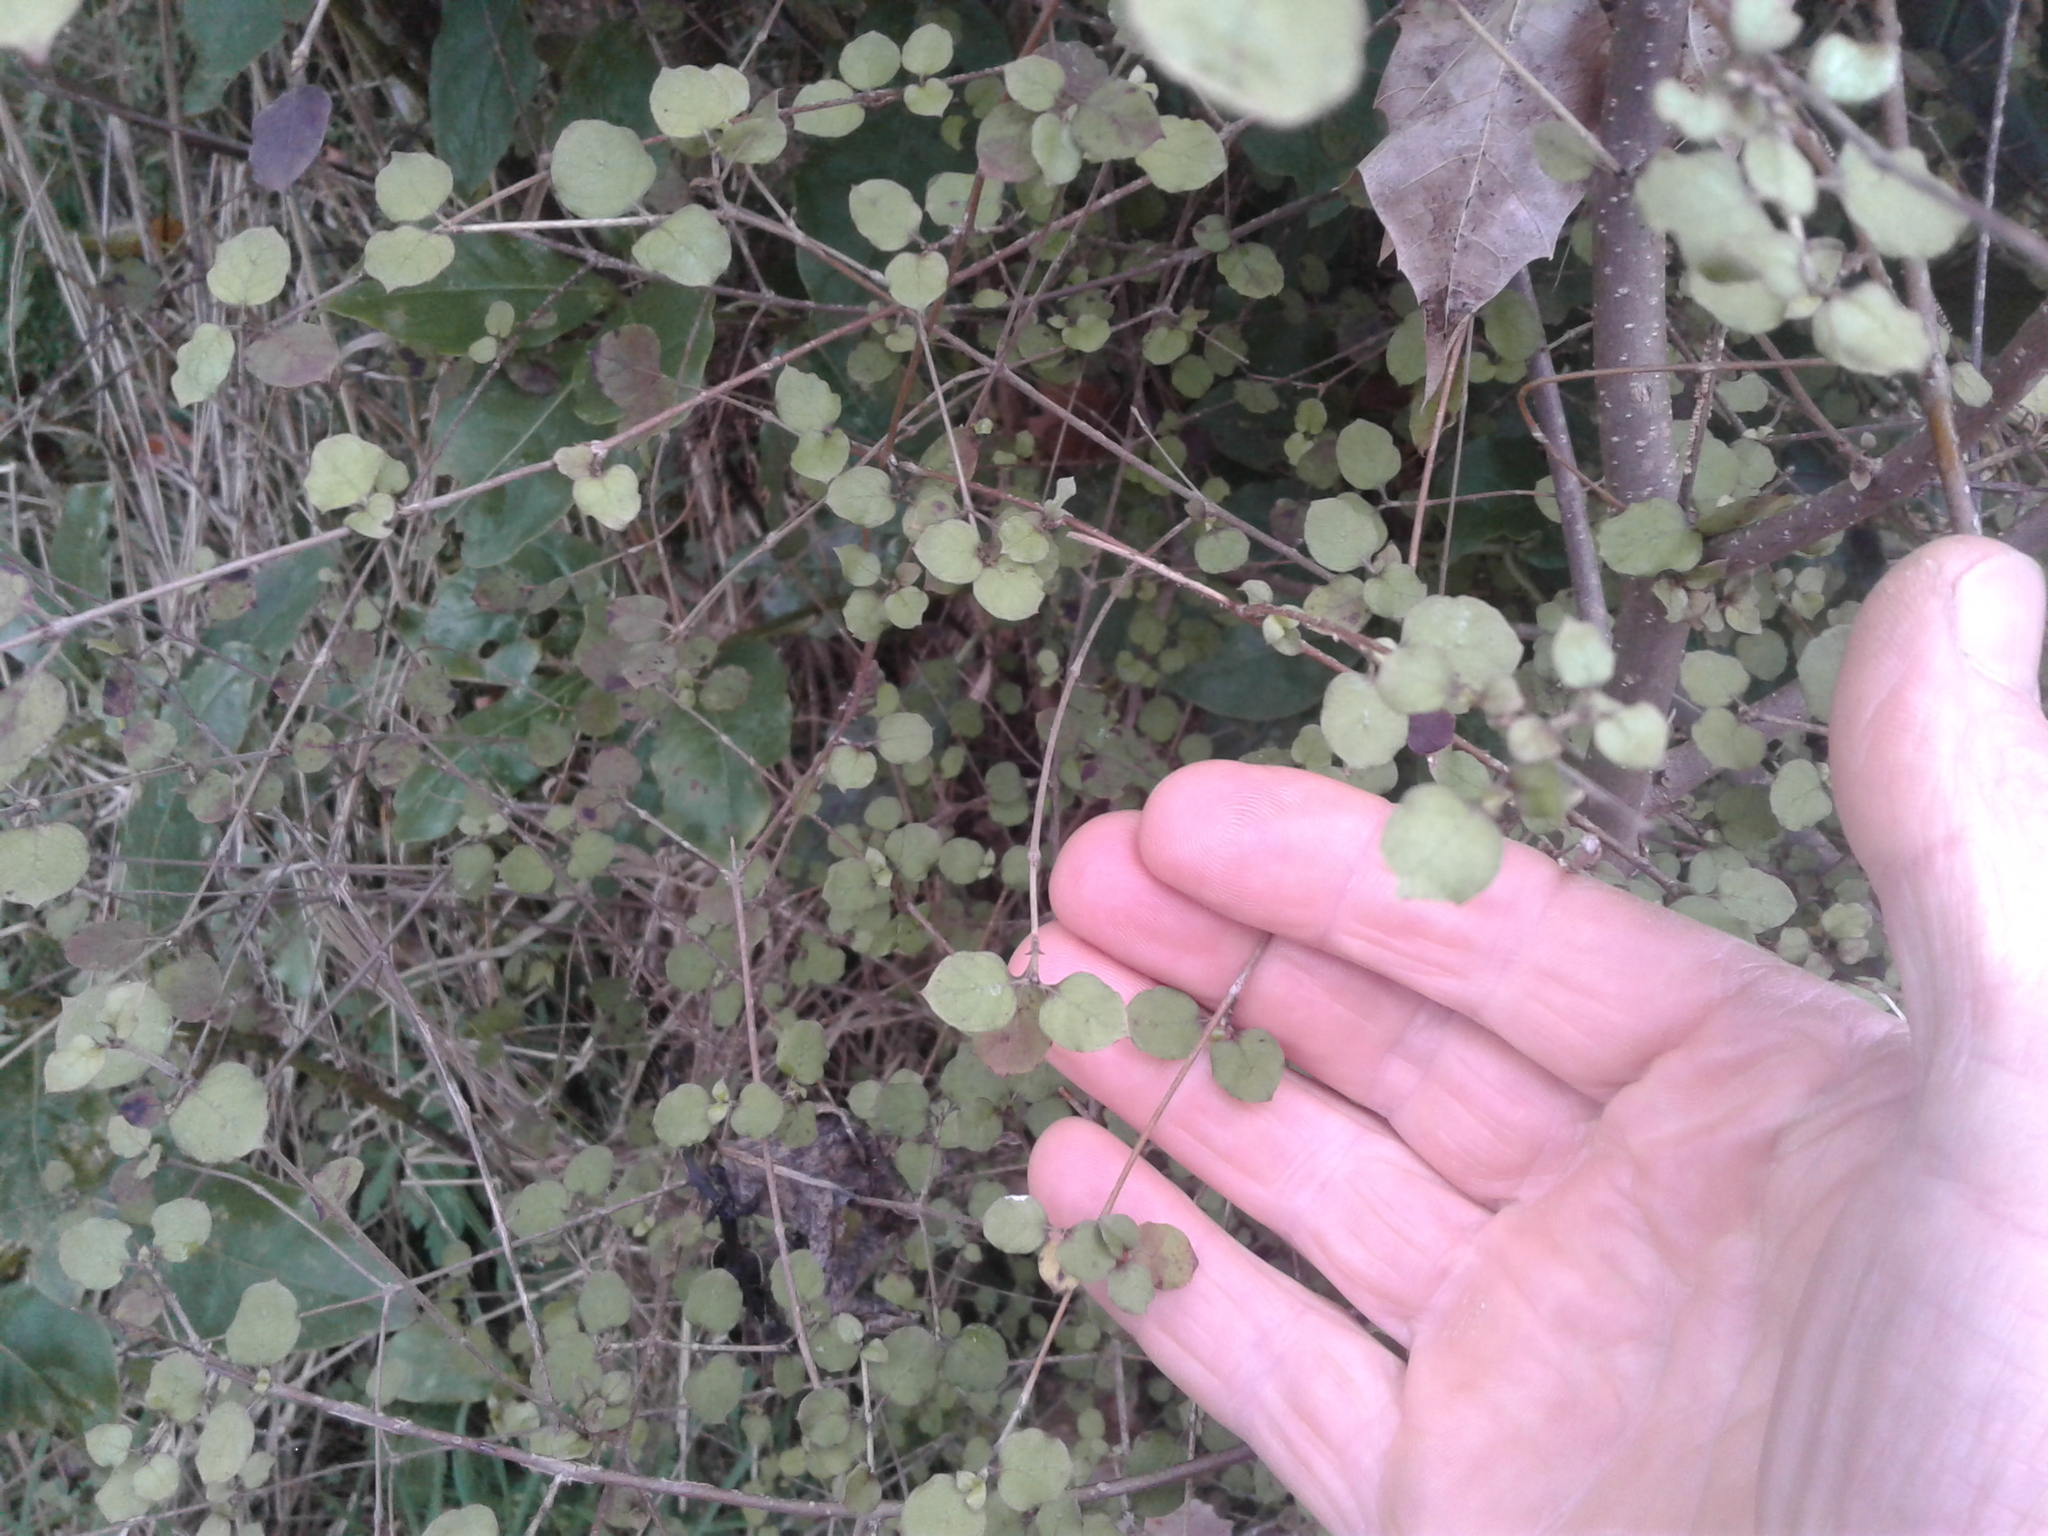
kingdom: Plantae
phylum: Tracheophyta
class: Magnoliopsida
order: Gentianales
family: Rubiaceae
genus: Coprosma
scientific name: Coprosma rotundifolia
